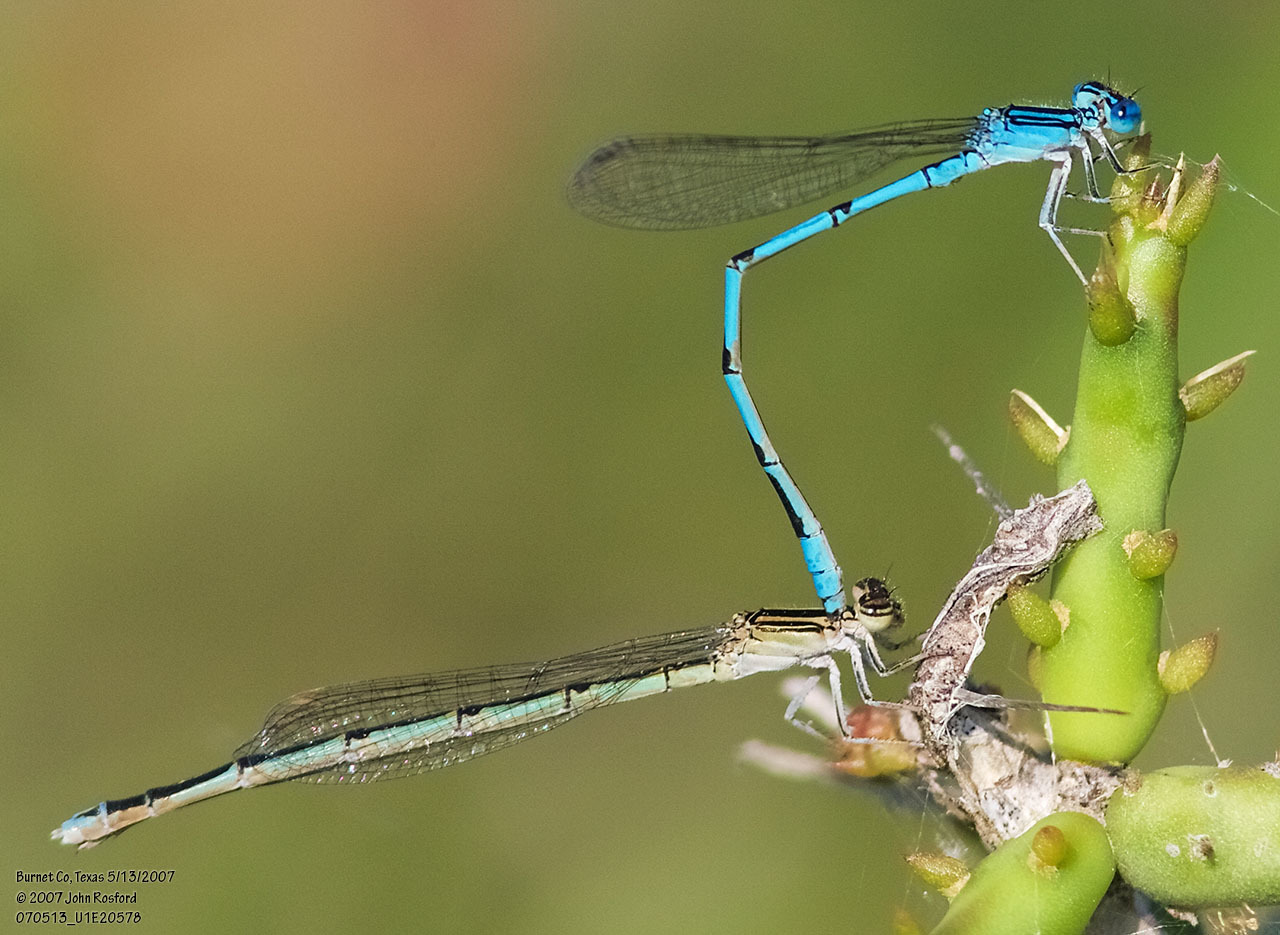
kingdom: Animalia
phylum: Arthropoda
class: Insecta
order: Odonata
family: Coenagrionidae
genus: Enallagma
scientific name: Enallagma basidens
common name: Double-striped bluet
